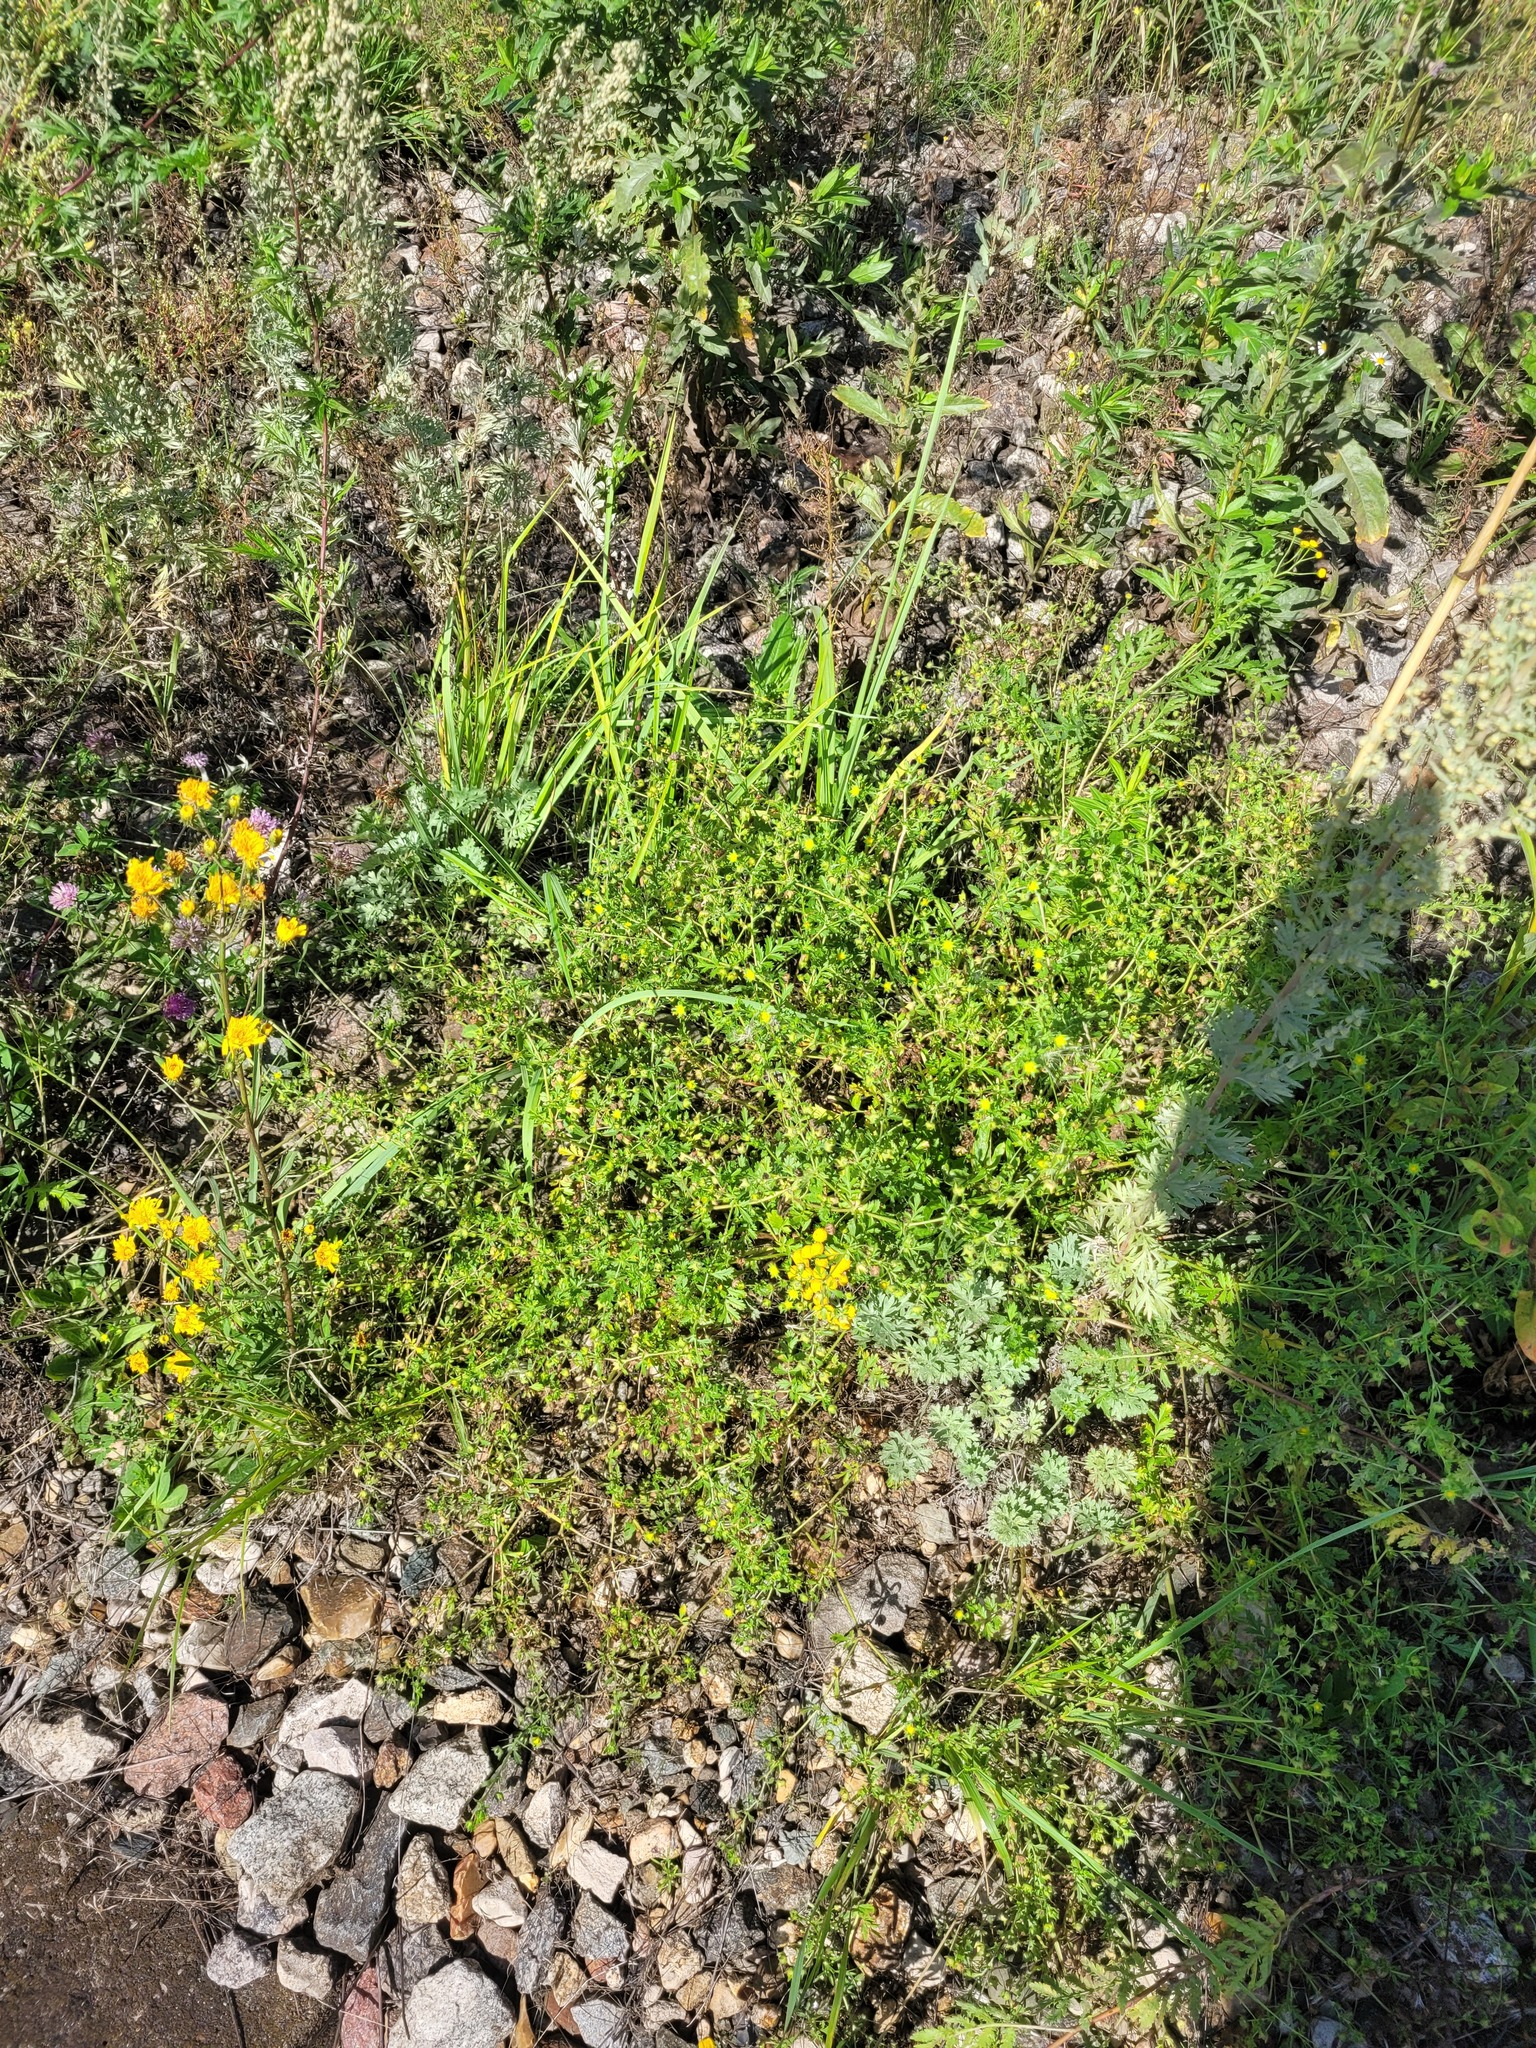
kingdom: Plantae
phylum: Tracheophyta
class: Magnoliopsida
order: Rosales
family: Rosaceae
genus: Potentilla
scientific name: Potentilla supina
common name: Prostrate cinquefoil
